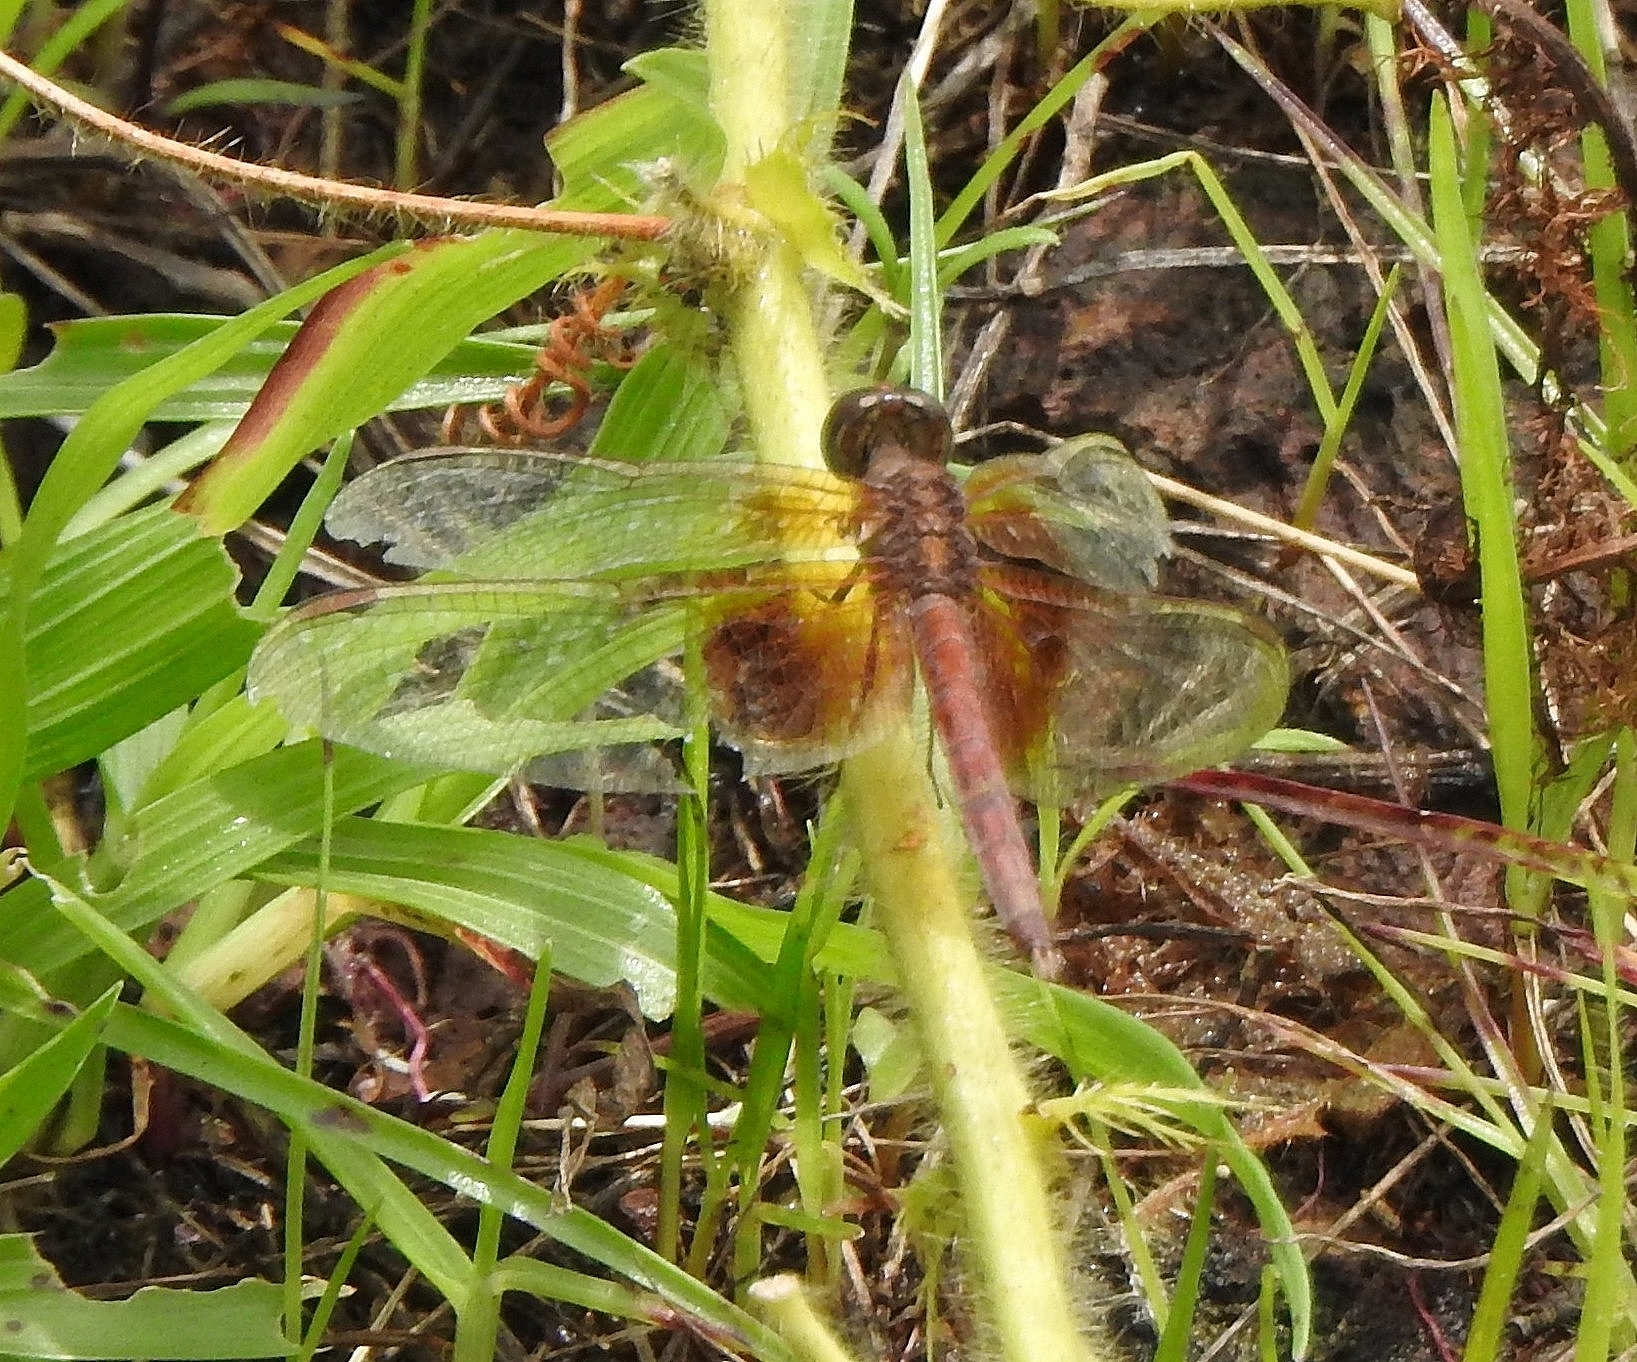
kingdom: Animalia
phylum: Arthropoda
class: Insecta
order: Odonata
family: Libellulidae
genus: Neurothemis
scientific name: Neurothemis intermedia
